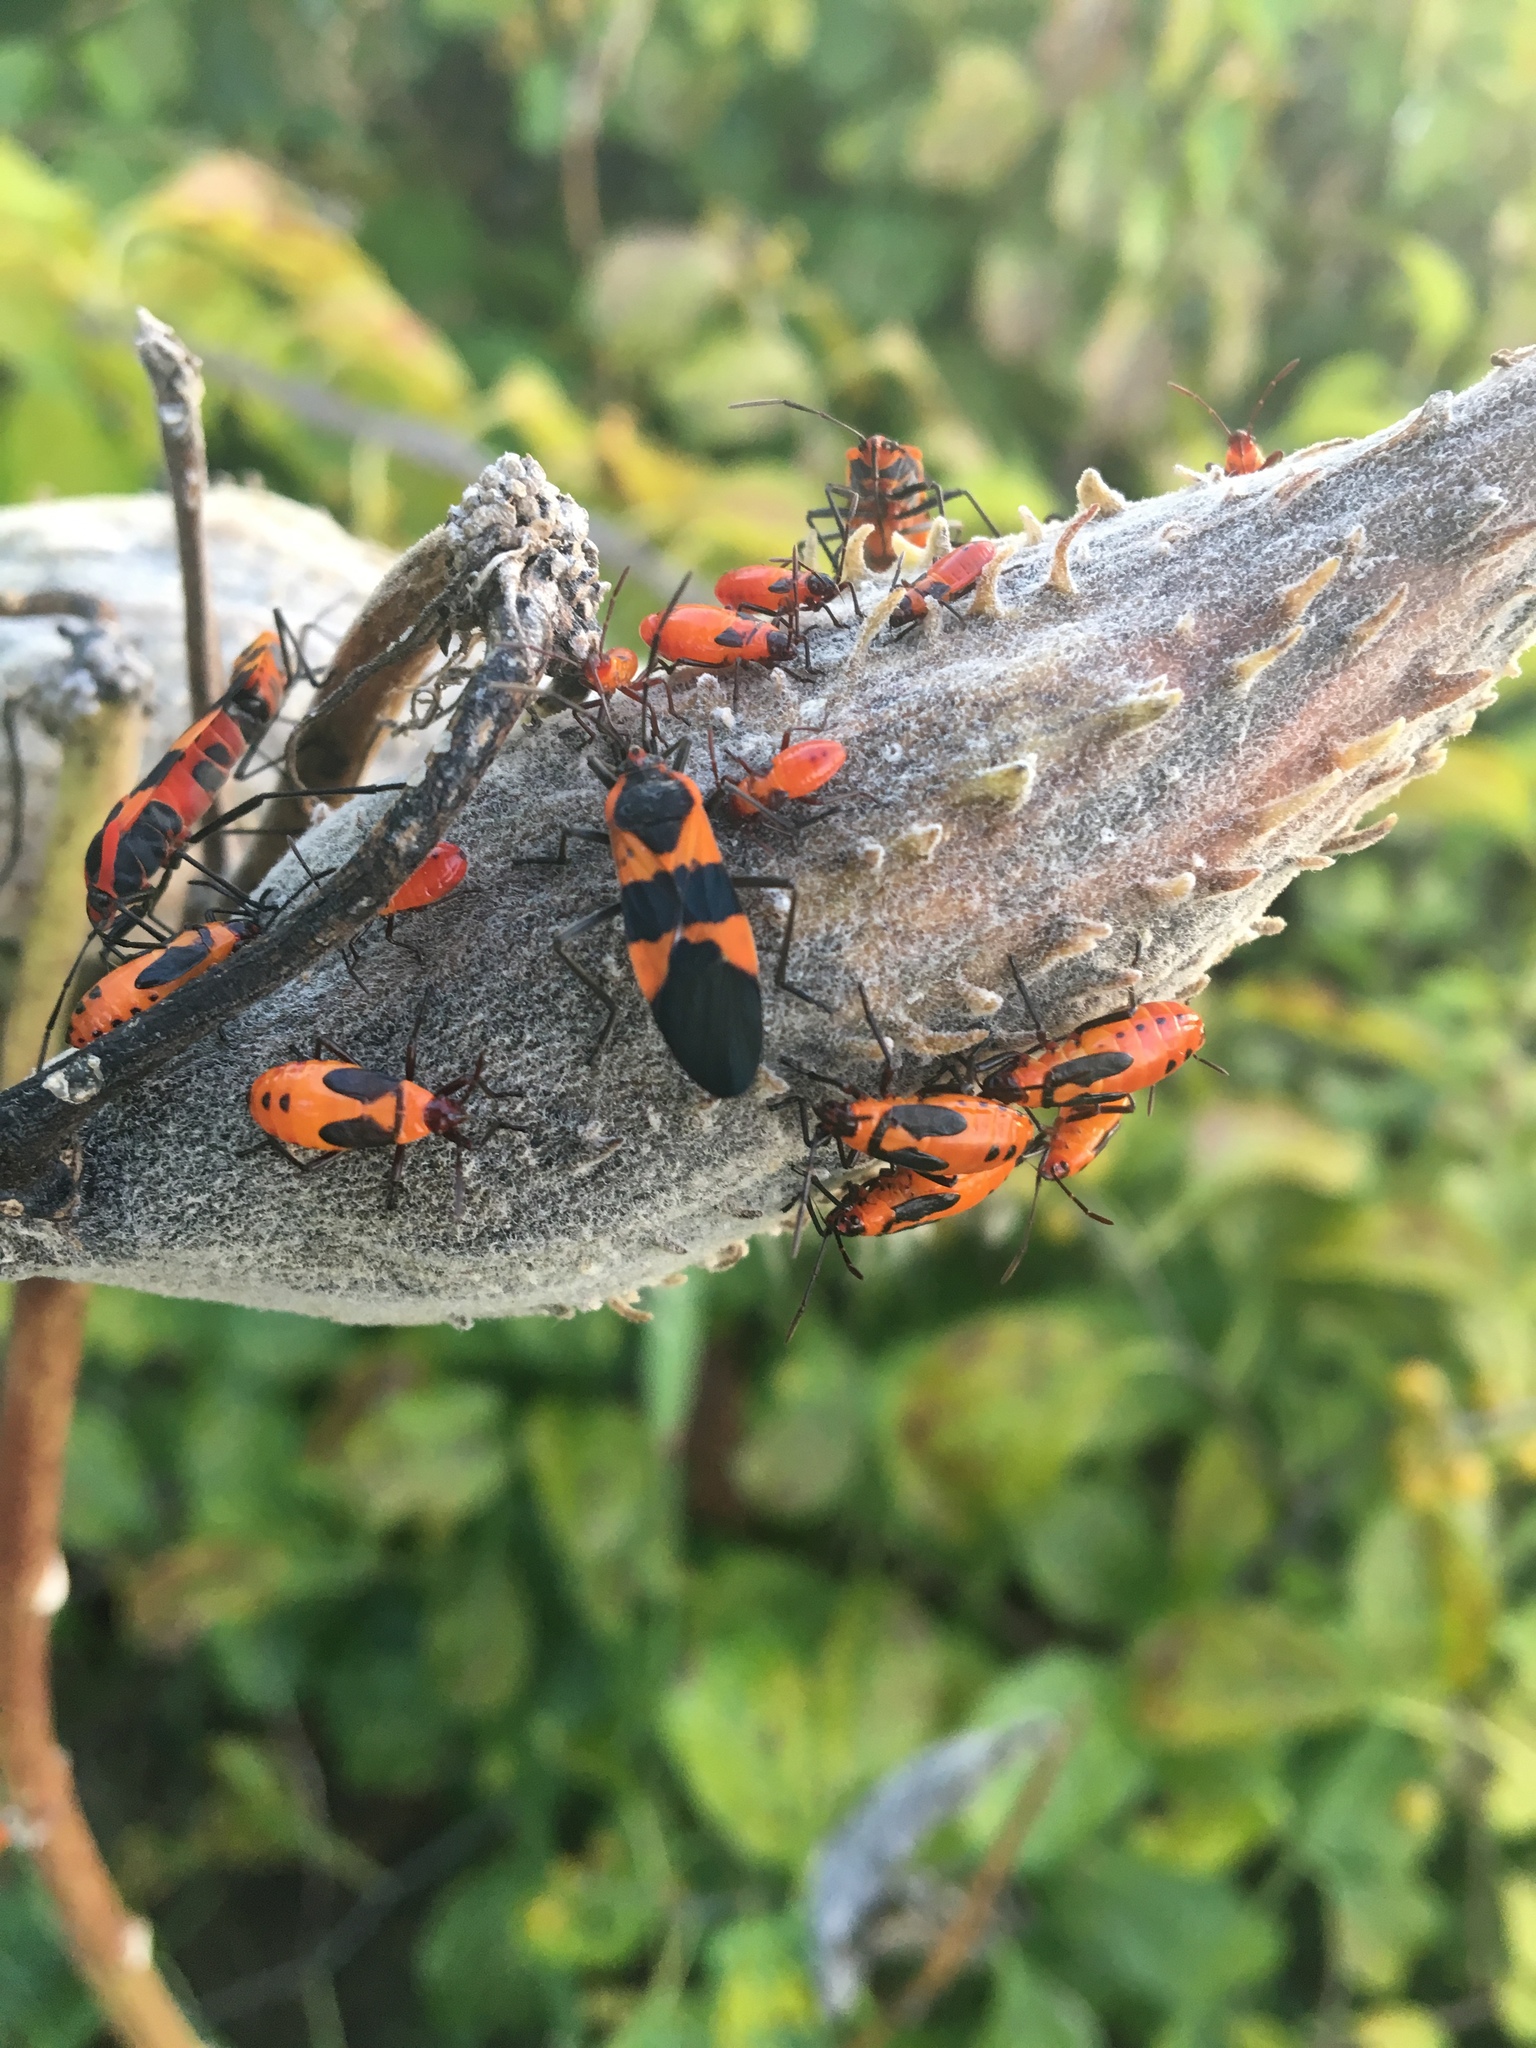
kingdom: Animalia
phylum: Arthropoda
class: Insecta
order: Hemiptera
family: Lygaeidae
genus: Oncopeltus
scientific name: Oncopeltus fasciatus
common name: Large milkweed bug
